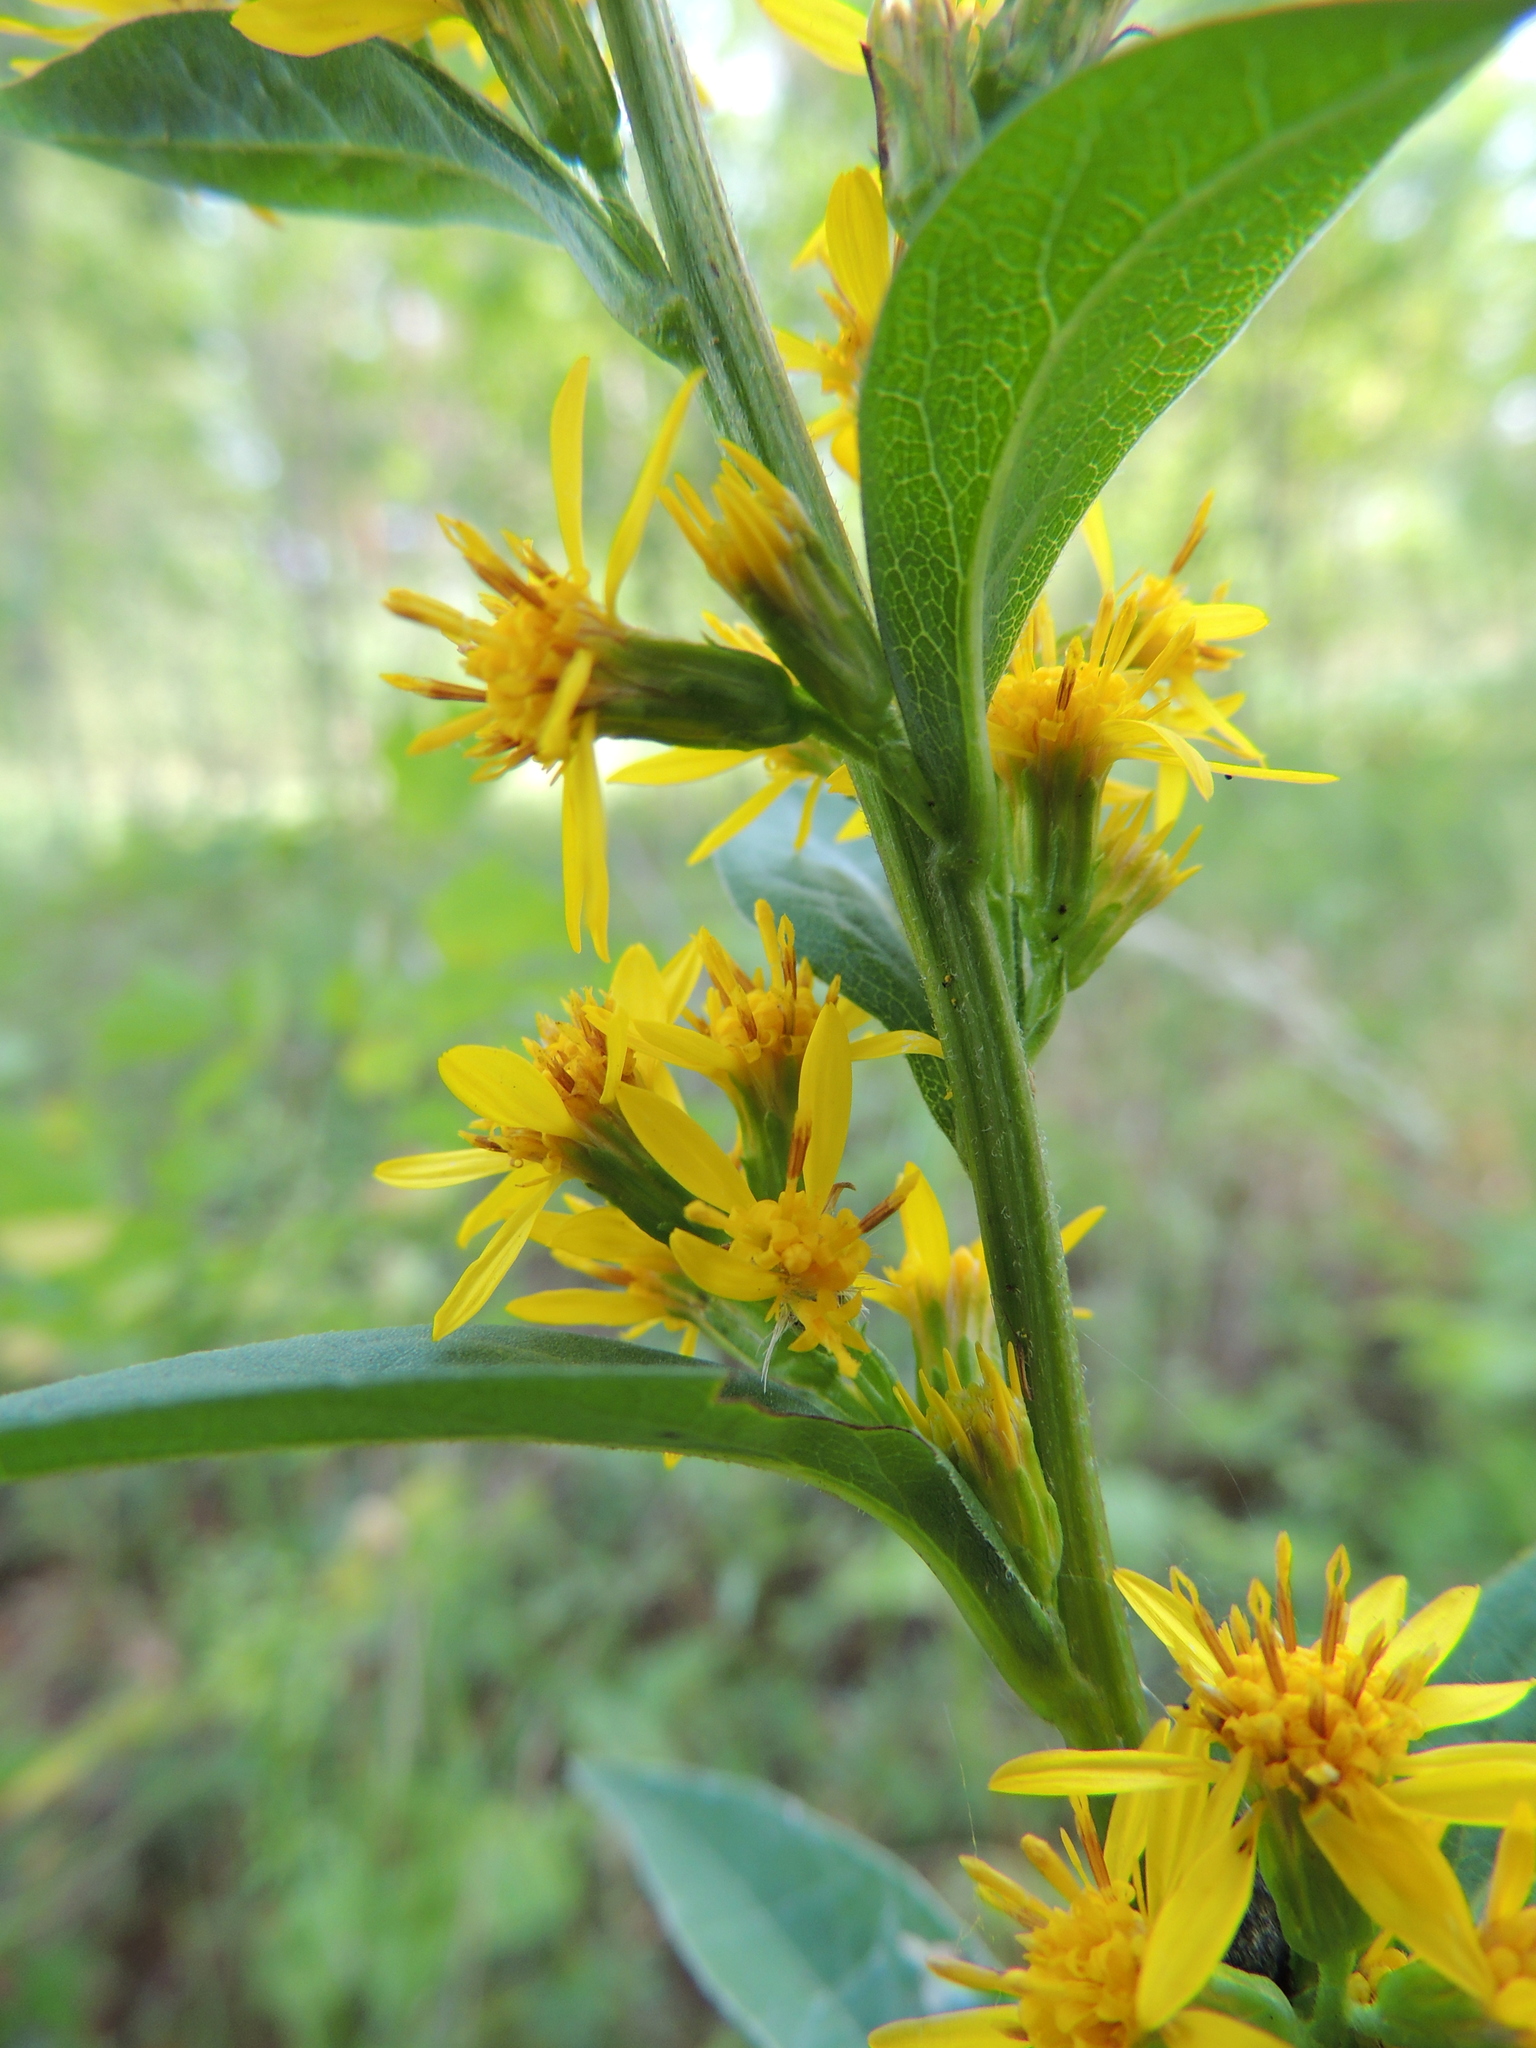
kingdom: Plantae
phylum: Tracheophyta
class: Magnoliopsida
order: Asterales
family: Asteraceae
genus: Solidago
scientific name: Solidago virgaurea
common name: Goldenrod
